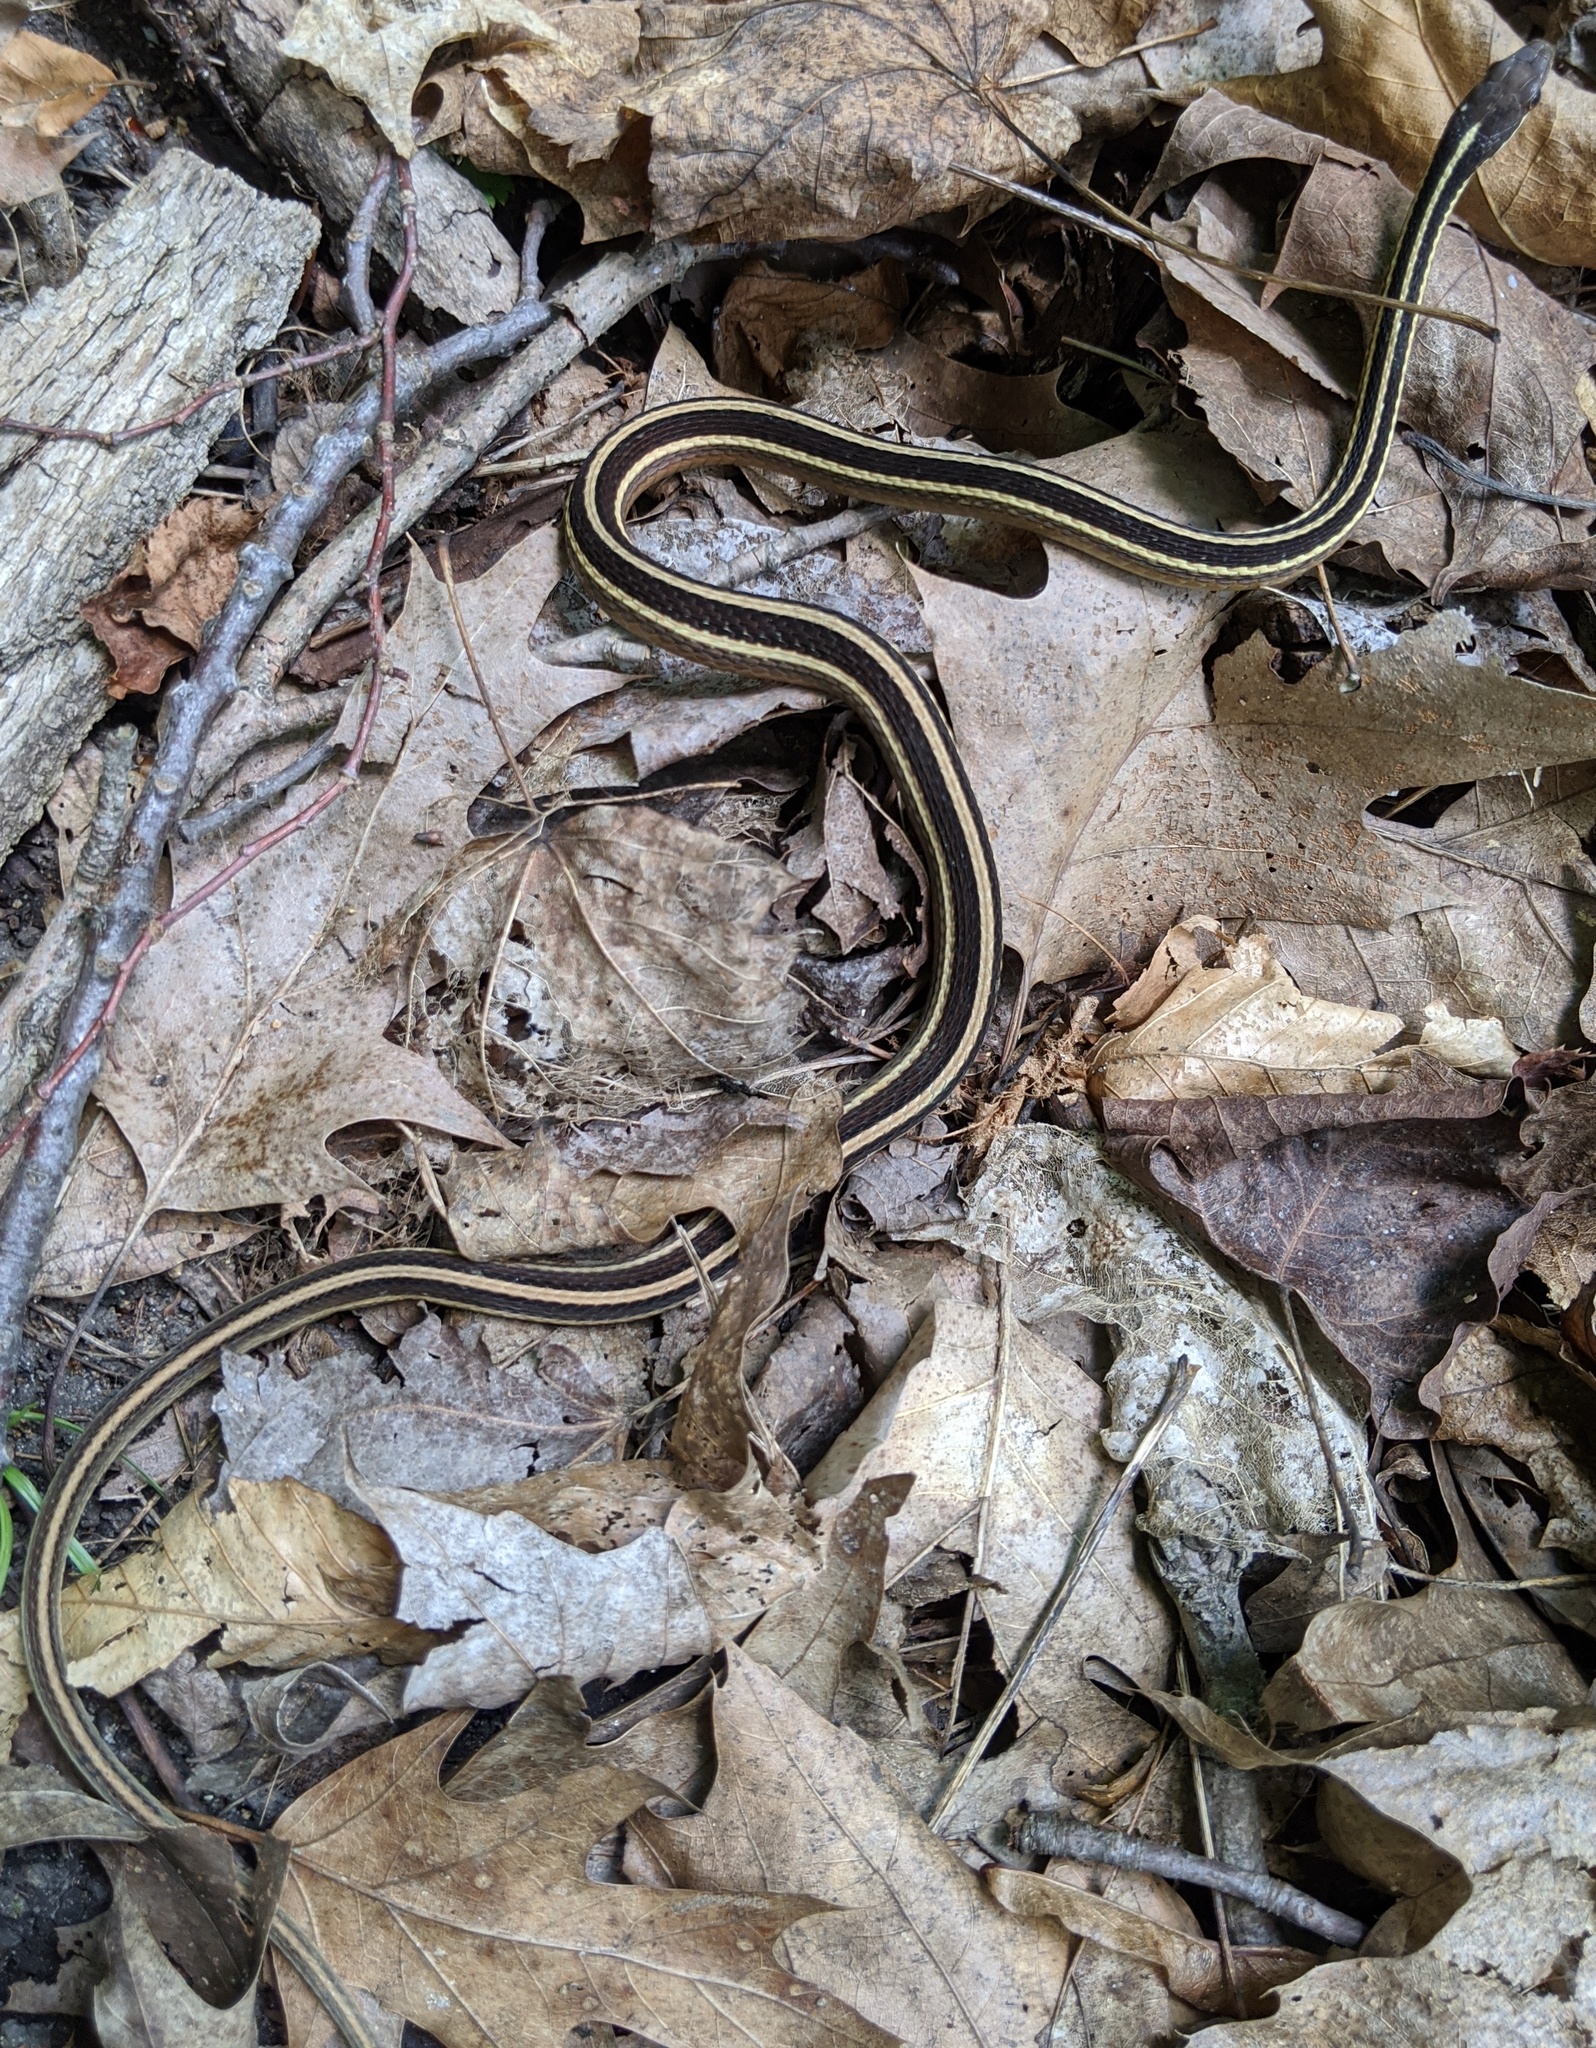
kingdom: Animalia
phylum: Chordata
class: Squamata
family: Colubridae
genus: Thamnophis
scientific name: Thamnophis saurita
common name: Eastern ribbonsnake
